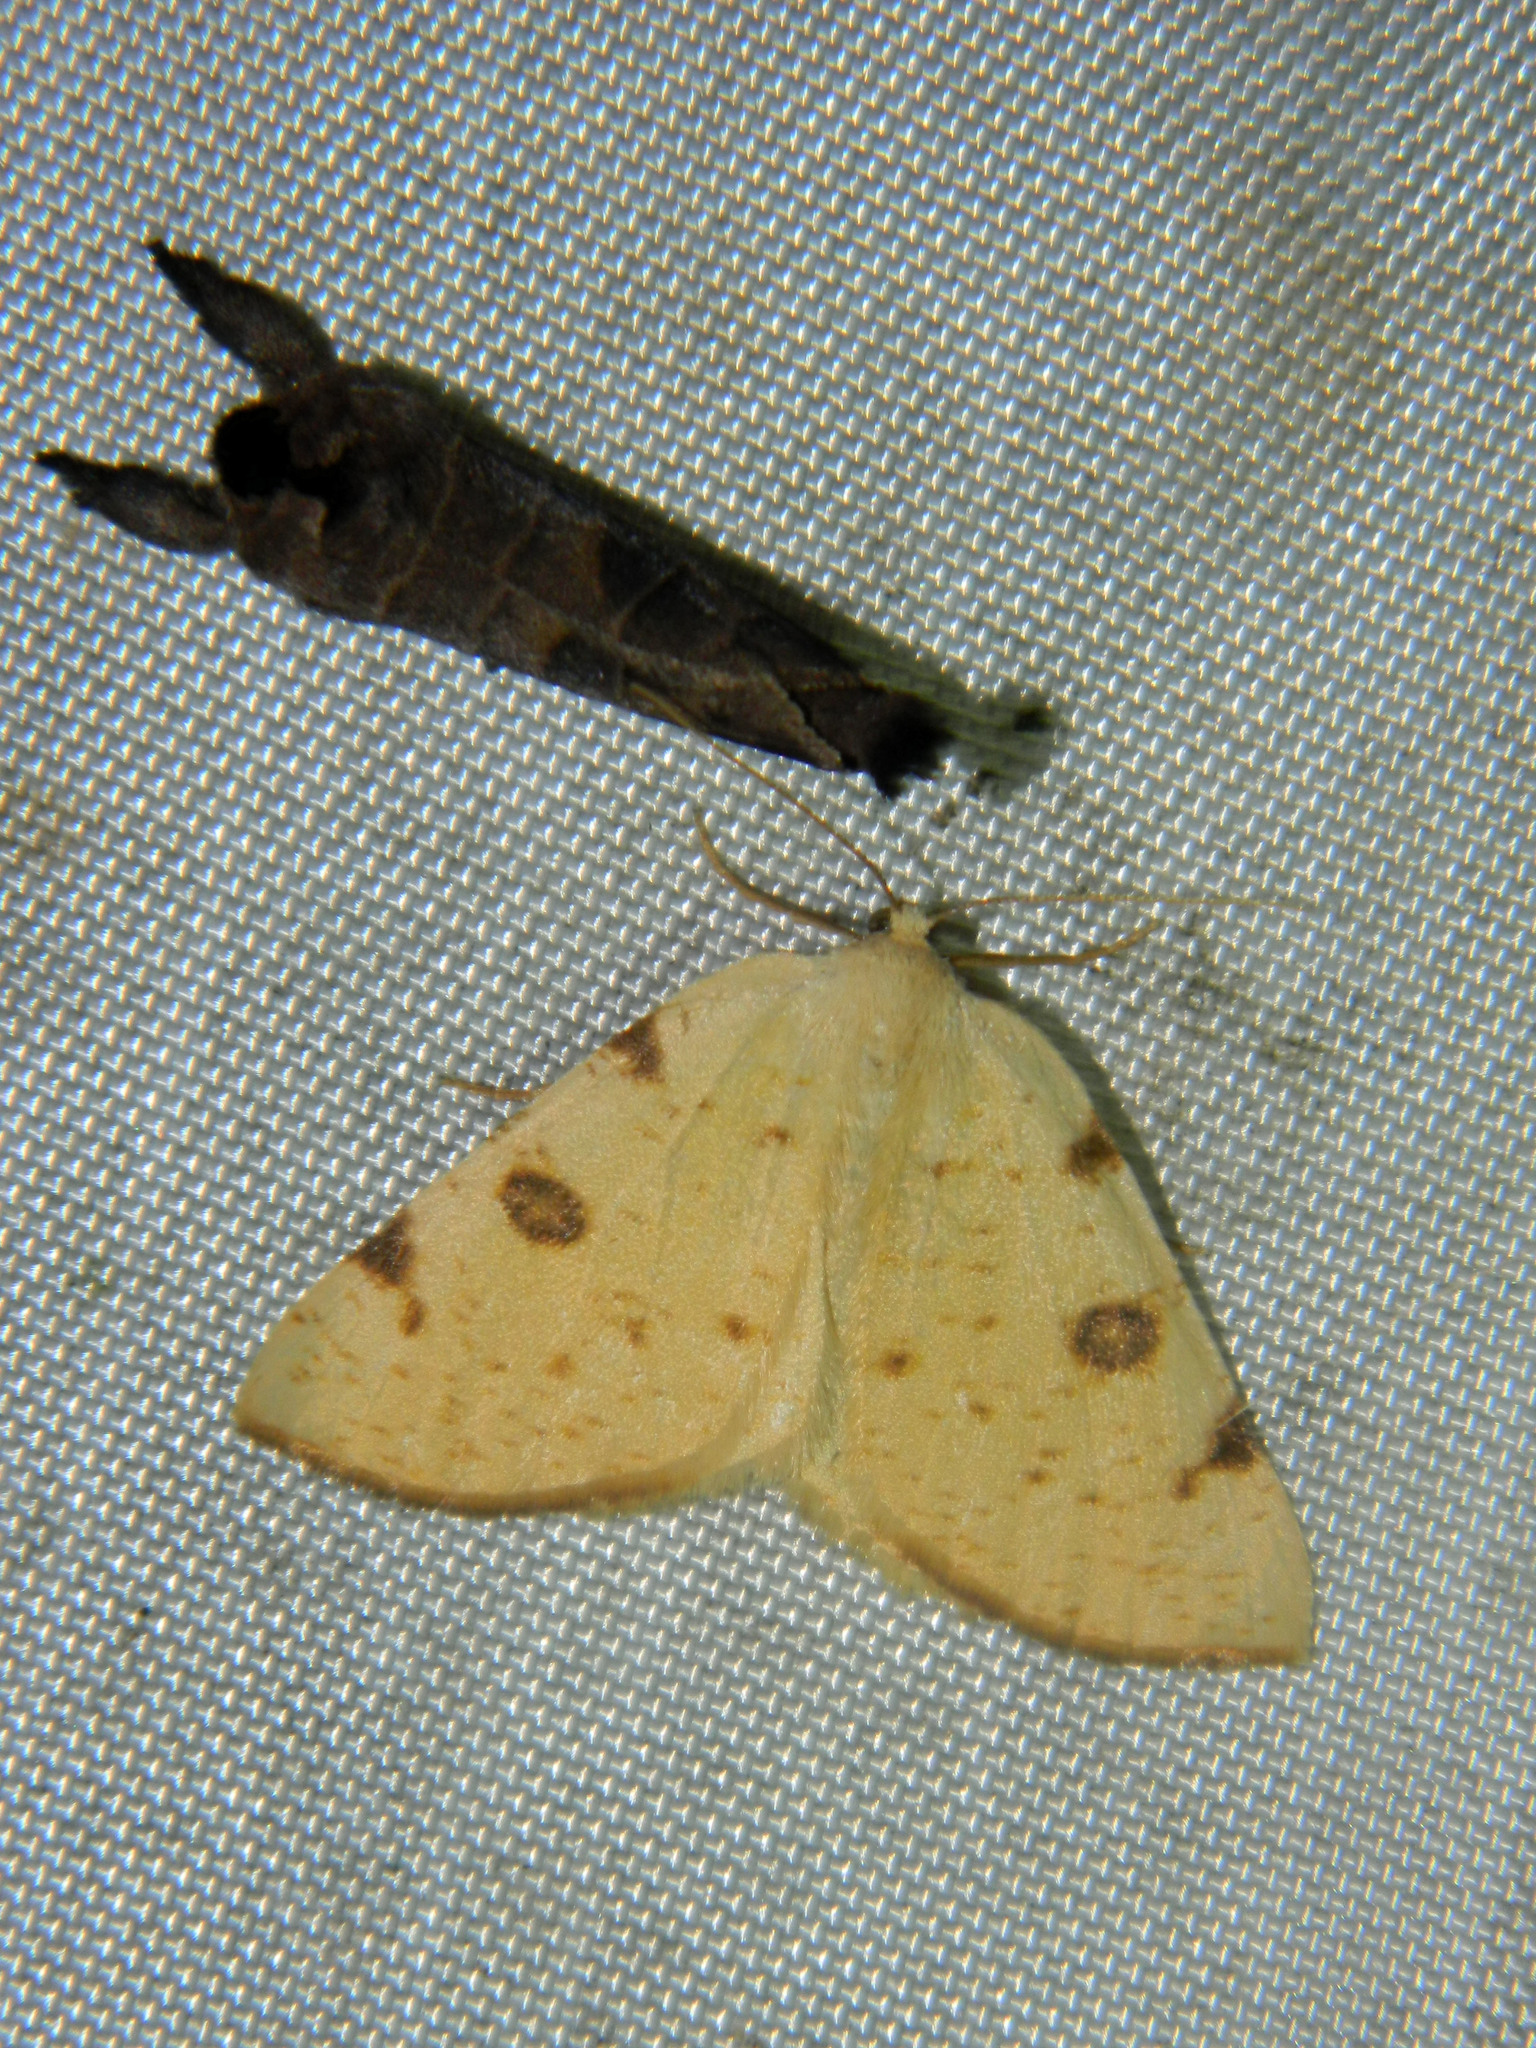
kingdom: Animalia
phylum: Arthropoda
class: Insecta
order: Lepidoptera
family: Geometridae
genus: Hesperumia
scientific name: Hesperumia sulphuraria
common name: Sulphur moth
